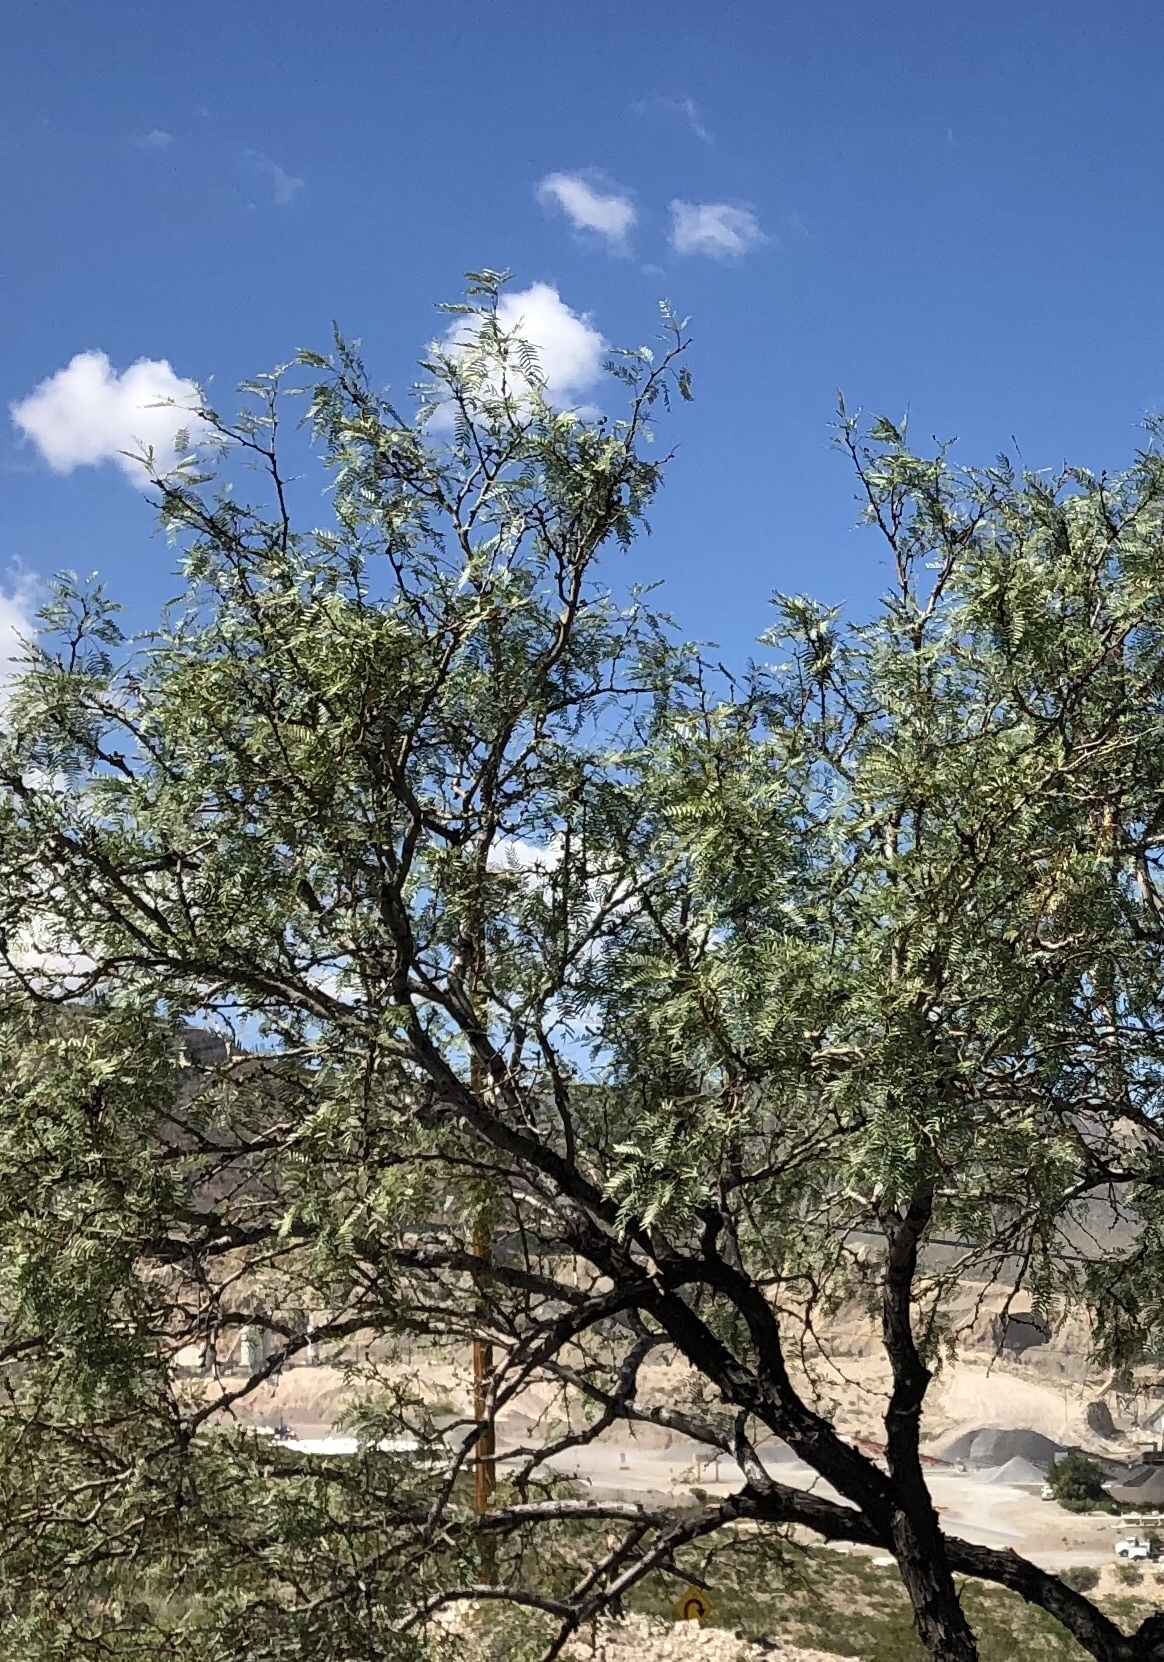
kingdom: Plantae
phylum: Tracheophyta
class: Magnoliopsida
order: Fabales
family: Fabaceae
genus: Prosopis
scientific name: Prosopis glandulosa
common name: Honey mesquite
